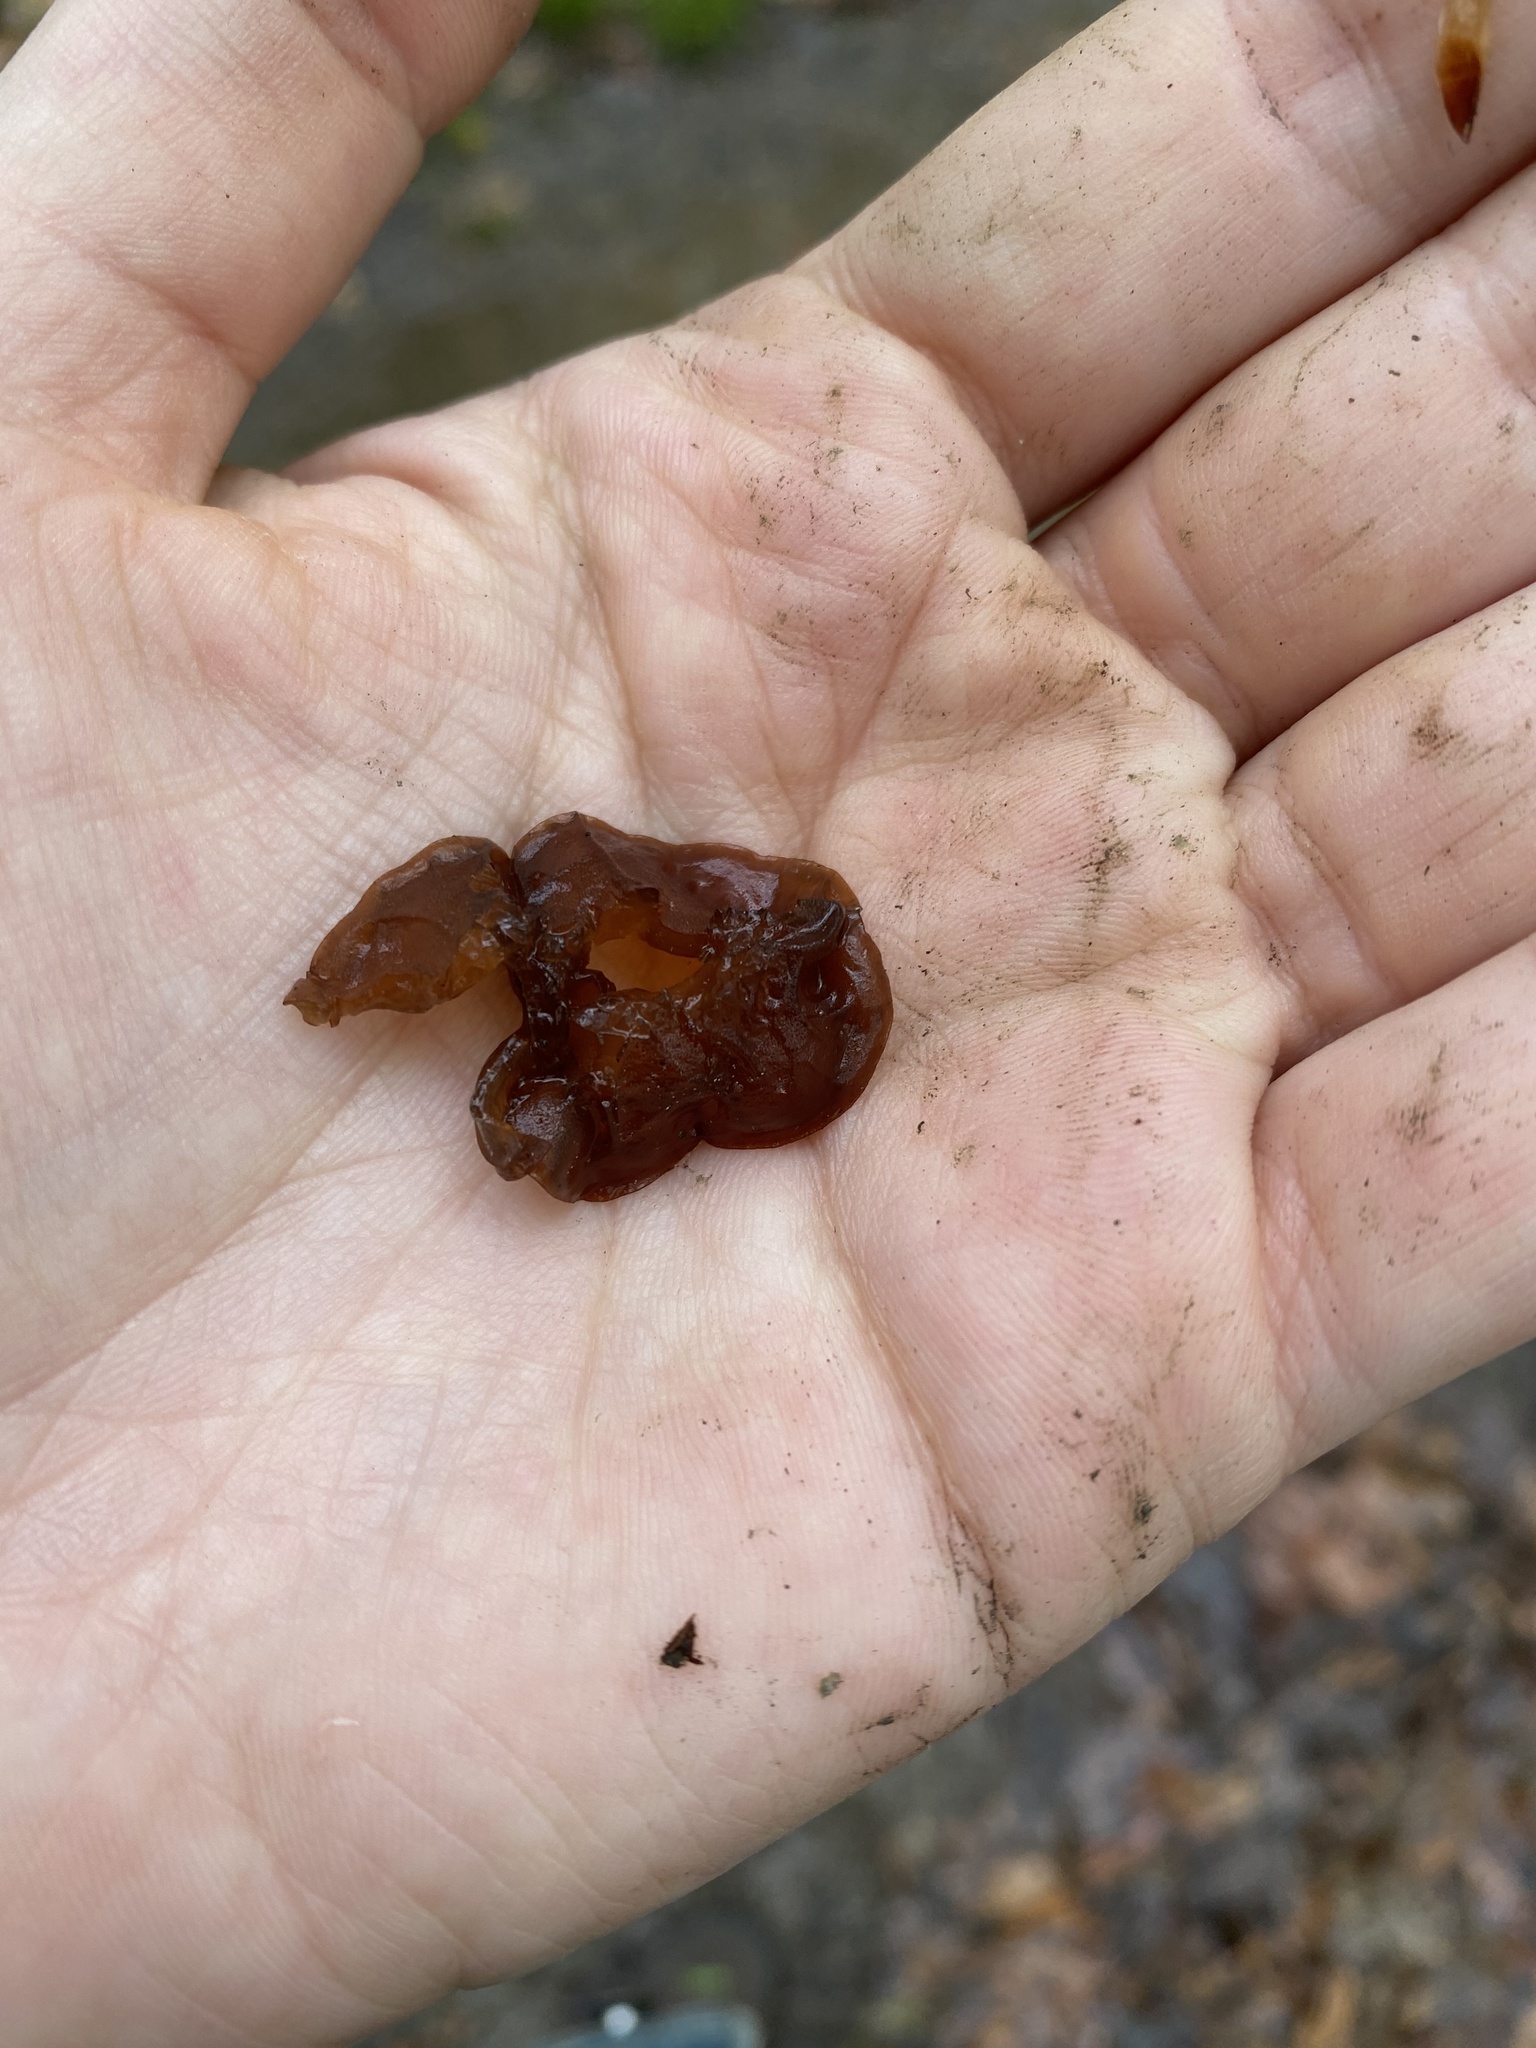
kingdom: Fungi
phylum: Basidiomycota
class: Agaricomycetes
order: Auriculariales
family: Auriculariaceae
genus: Exidia
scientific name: Exidia
